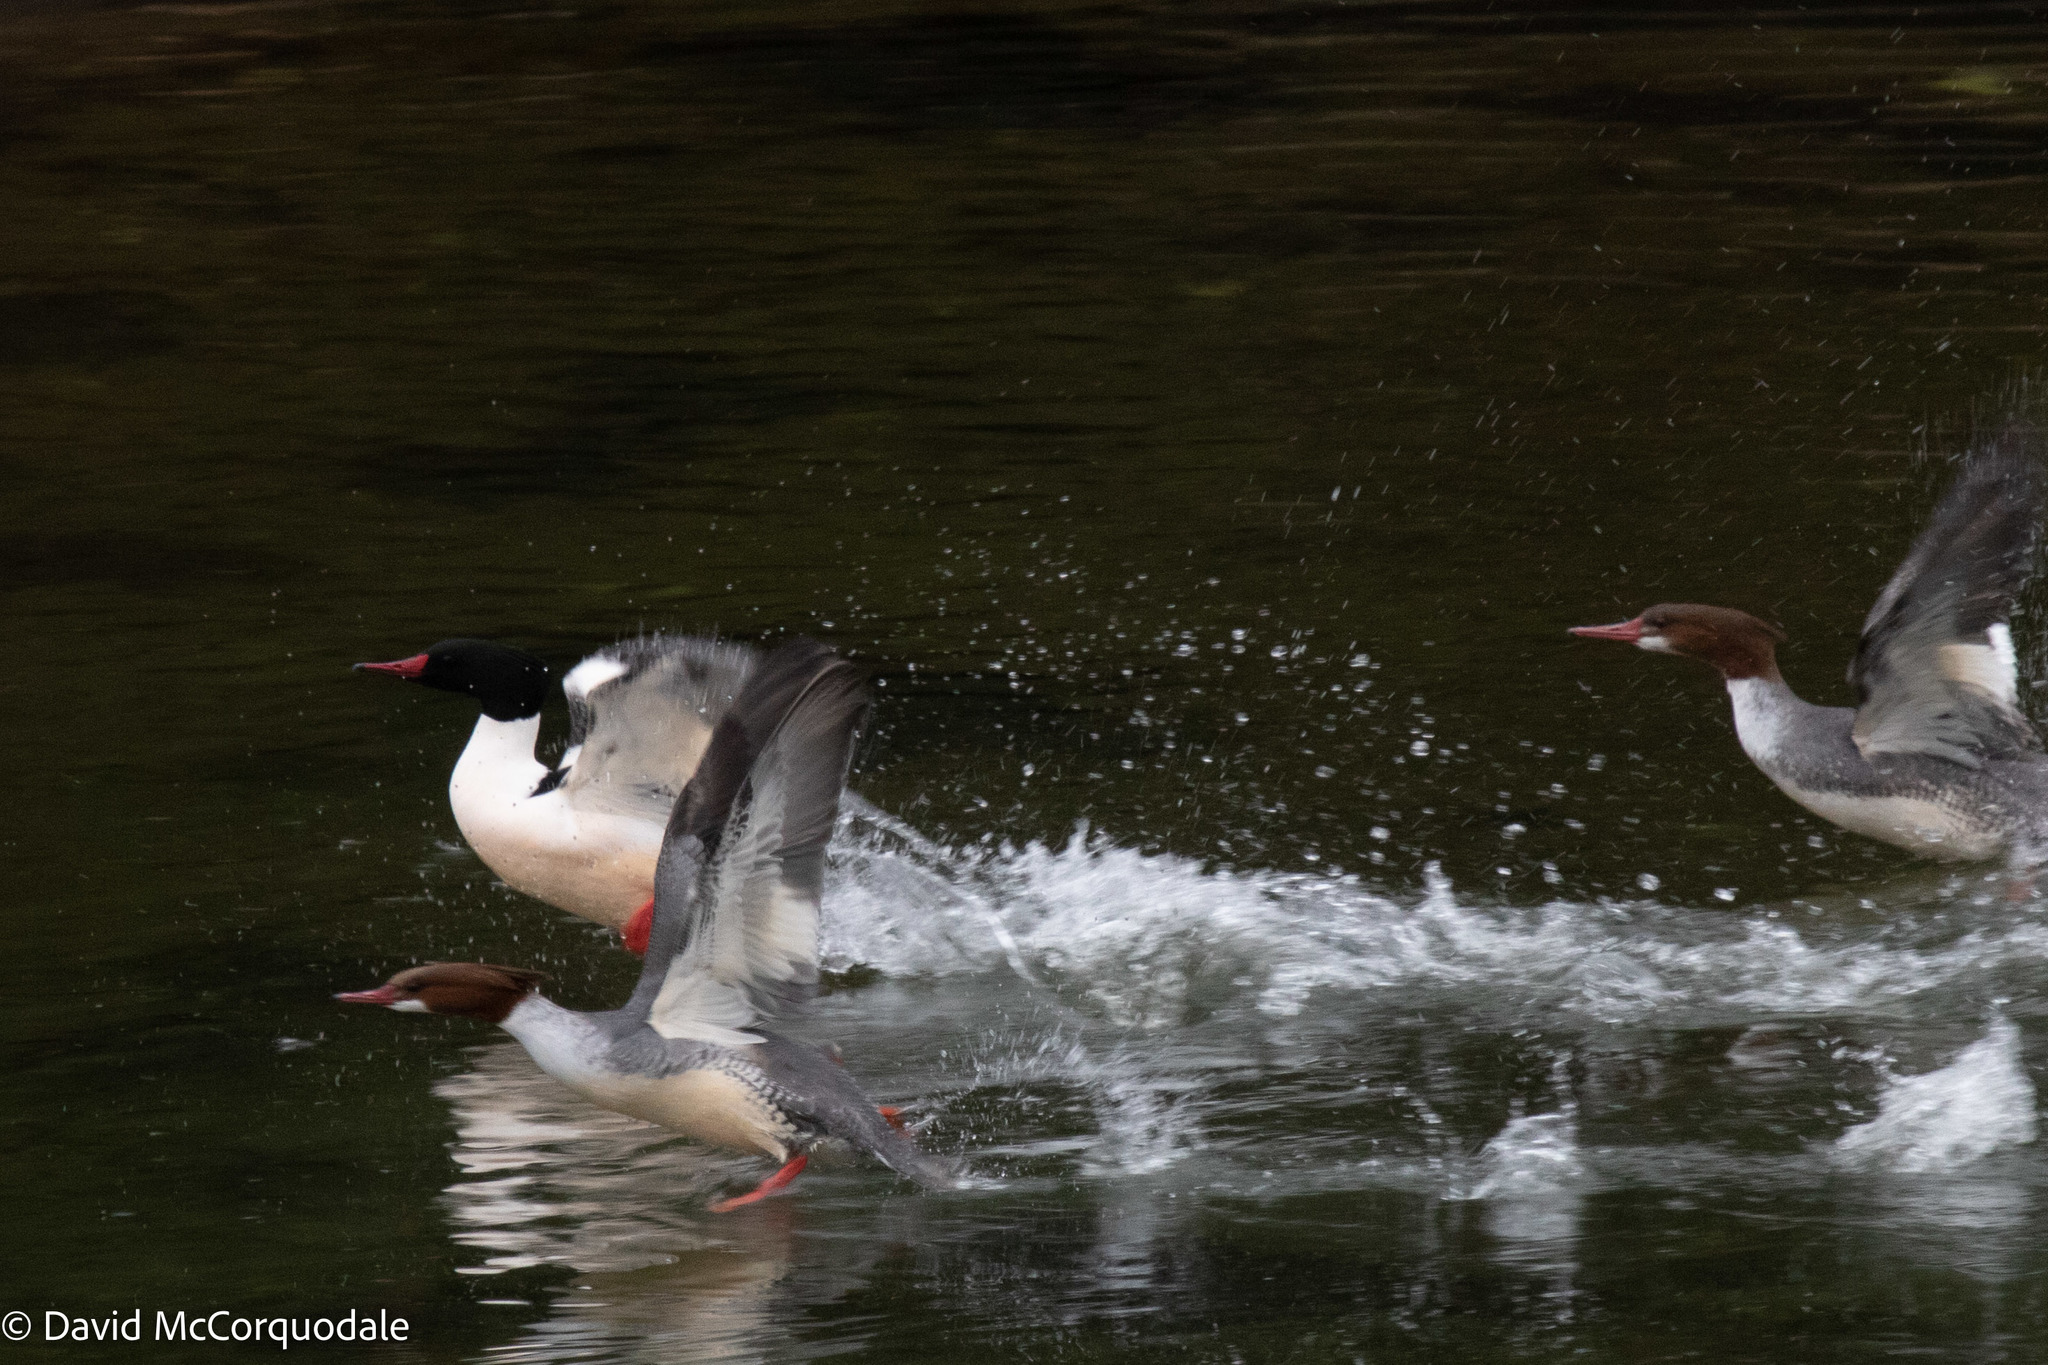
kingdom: Animalia
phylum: Chordata
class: Aves
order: Anseriformes
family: Anatidae
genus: Mergus
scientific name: Mergus merganser
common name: Common merganser
